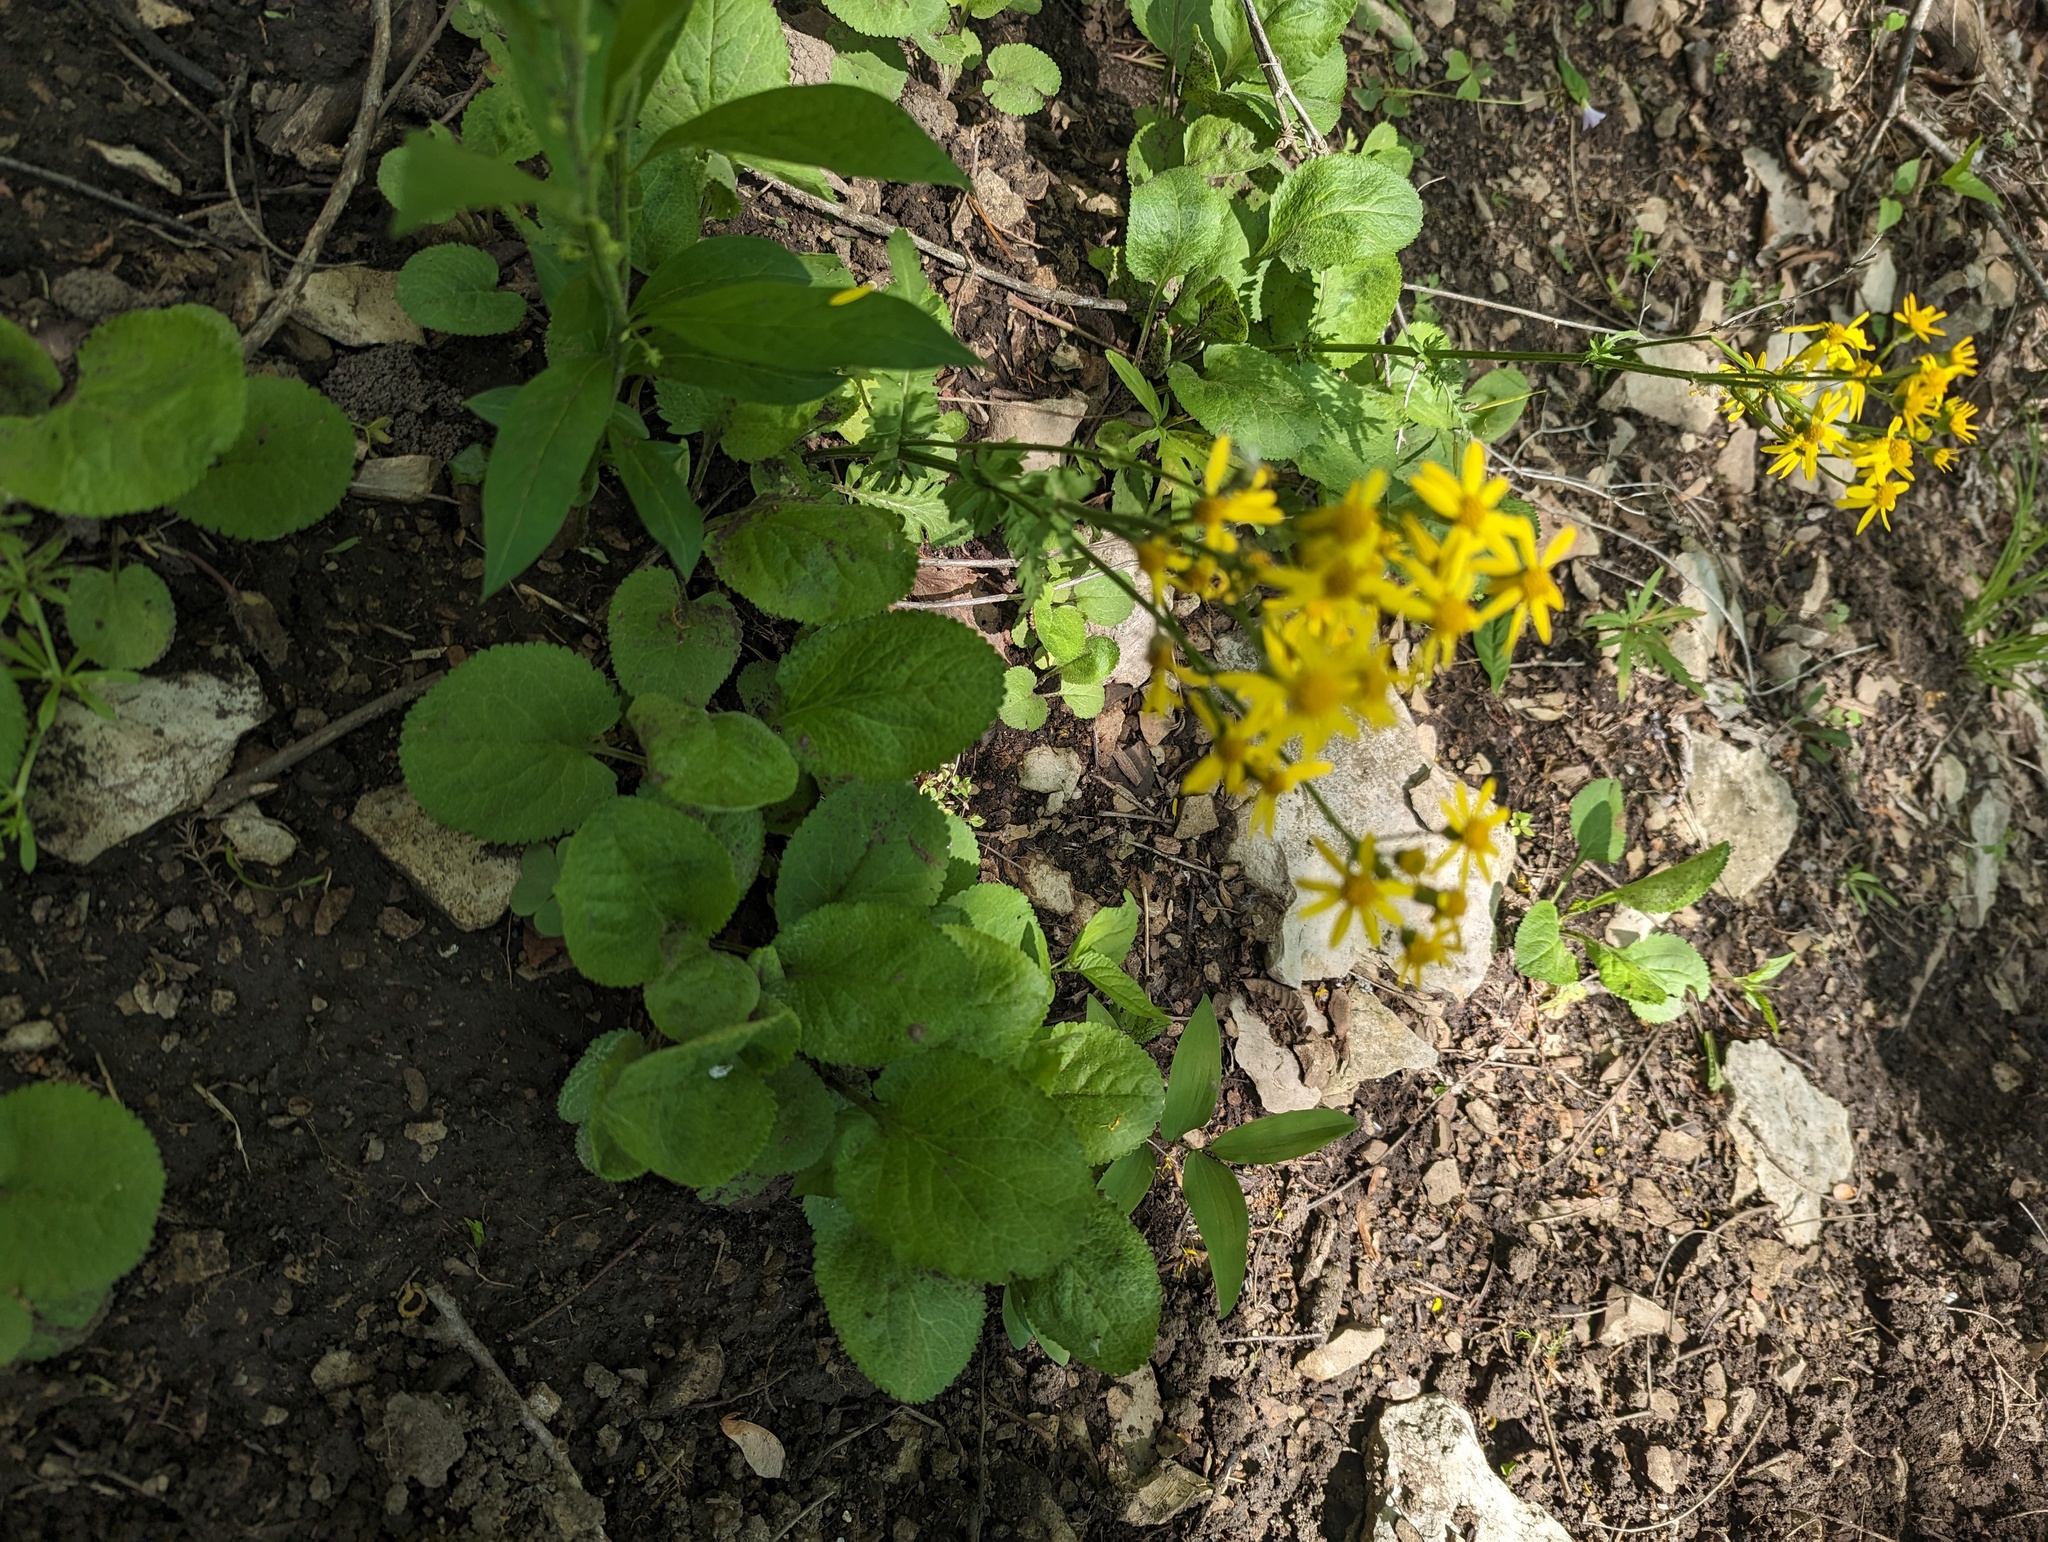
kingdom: Plantae
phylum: Tracheophyta
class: Magnoliopsida
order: Asterales
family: Asteraceae
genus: Packera
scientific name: Packera aurea
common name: Golden groundsel
